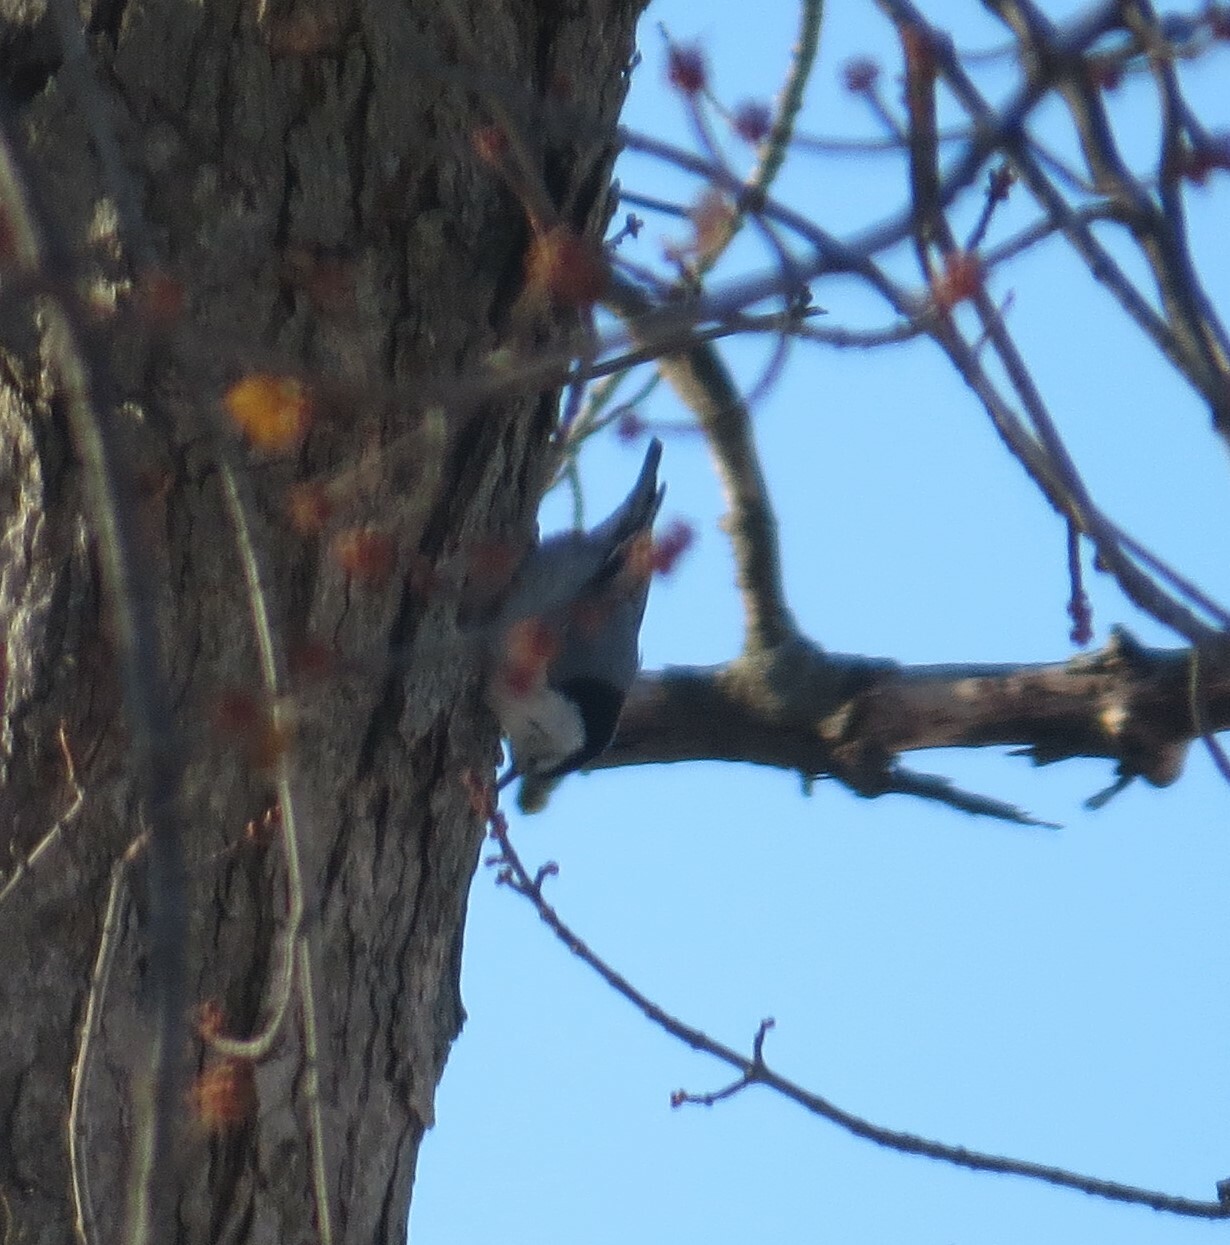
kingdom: Animalia
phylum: Chordata
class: Aves
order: Passeriformes
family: Sittidae
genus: Sitta
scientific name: Sitta carolinensis
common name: White-breasted nuthatch
